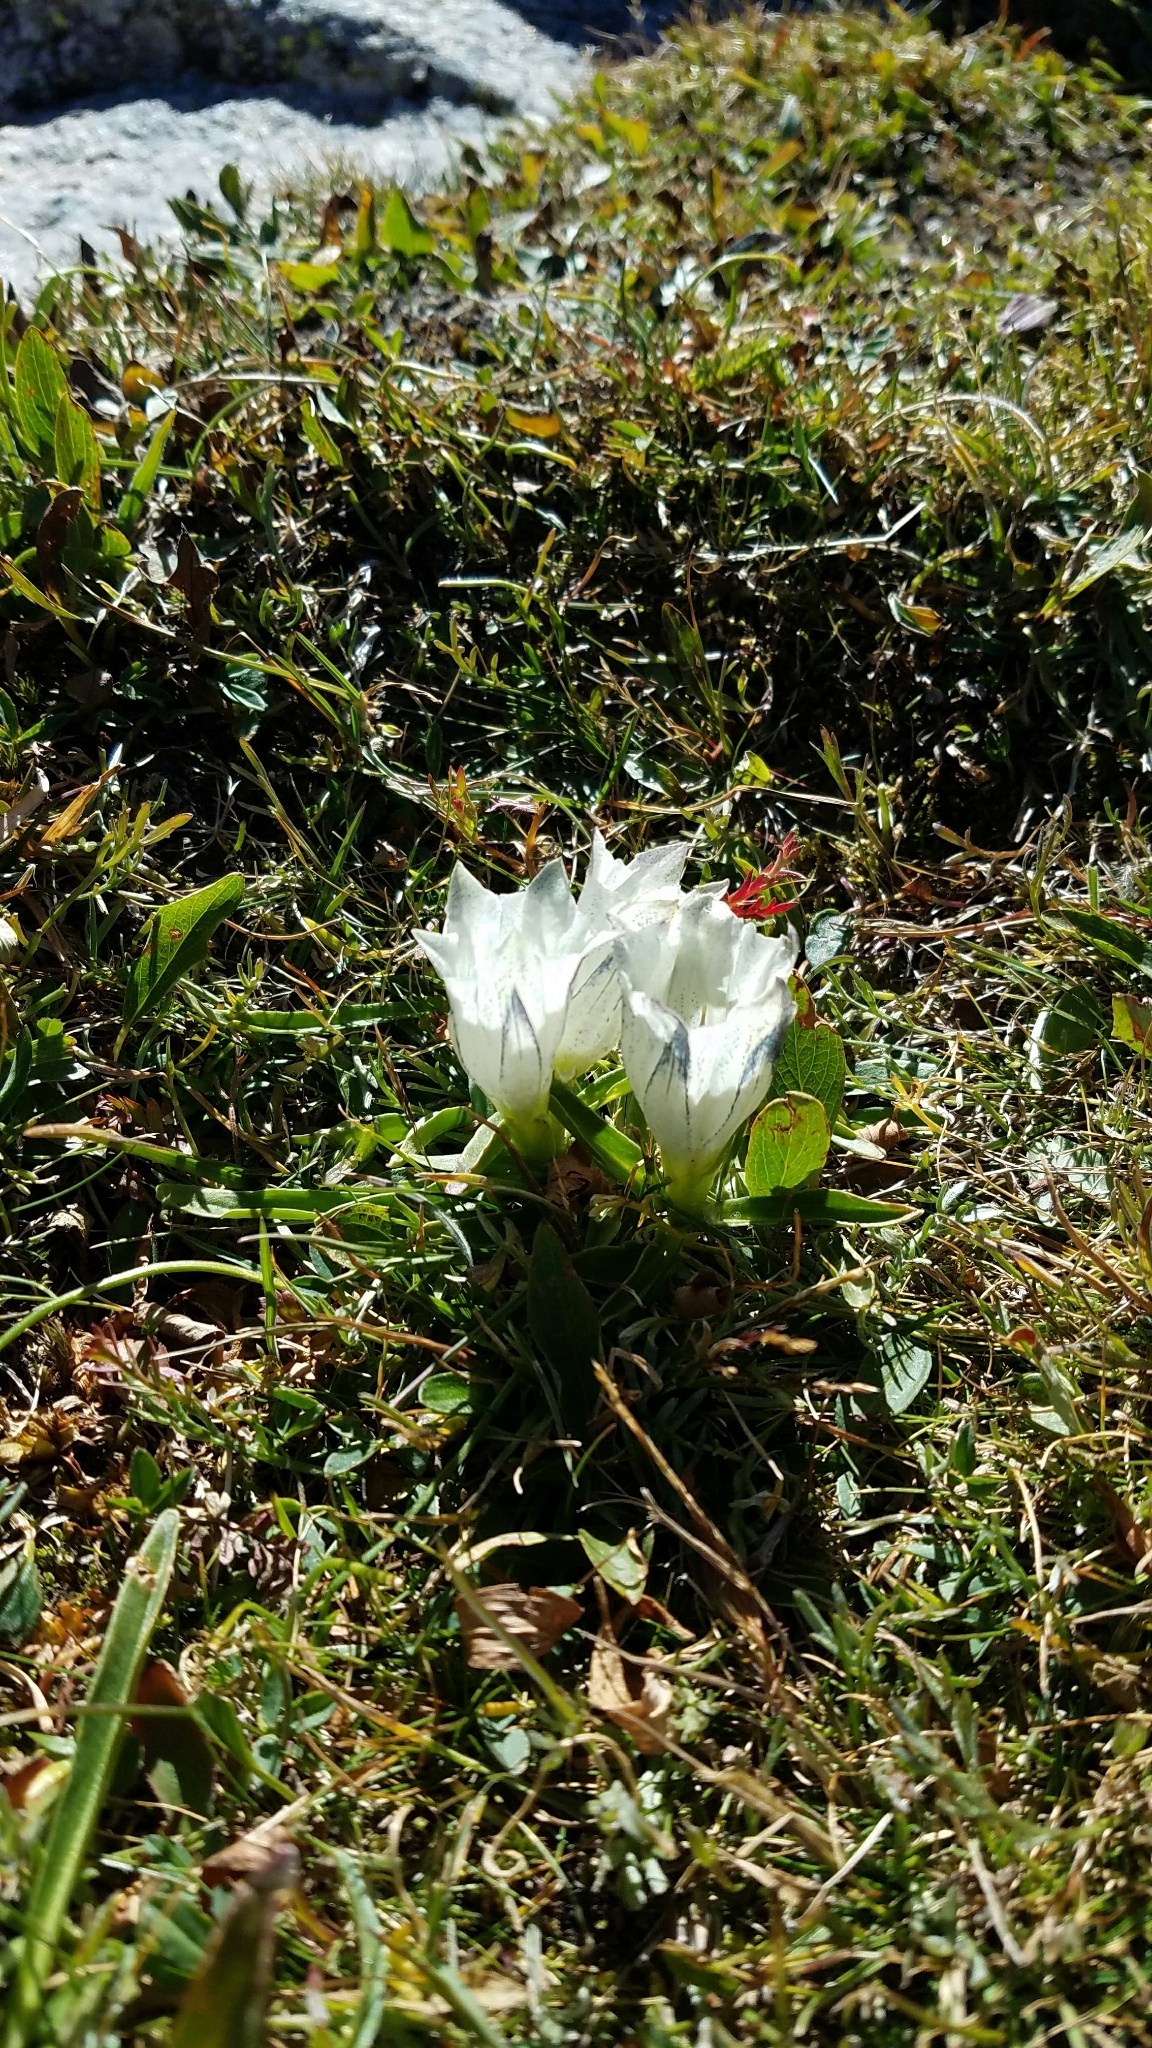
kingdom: Plantae
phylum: Tracheophyta
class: Magnoliopsida
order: Gentianales
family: Gentianaceae
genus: Gentiana
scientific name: Gentiana algida
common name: Arctic gentian
